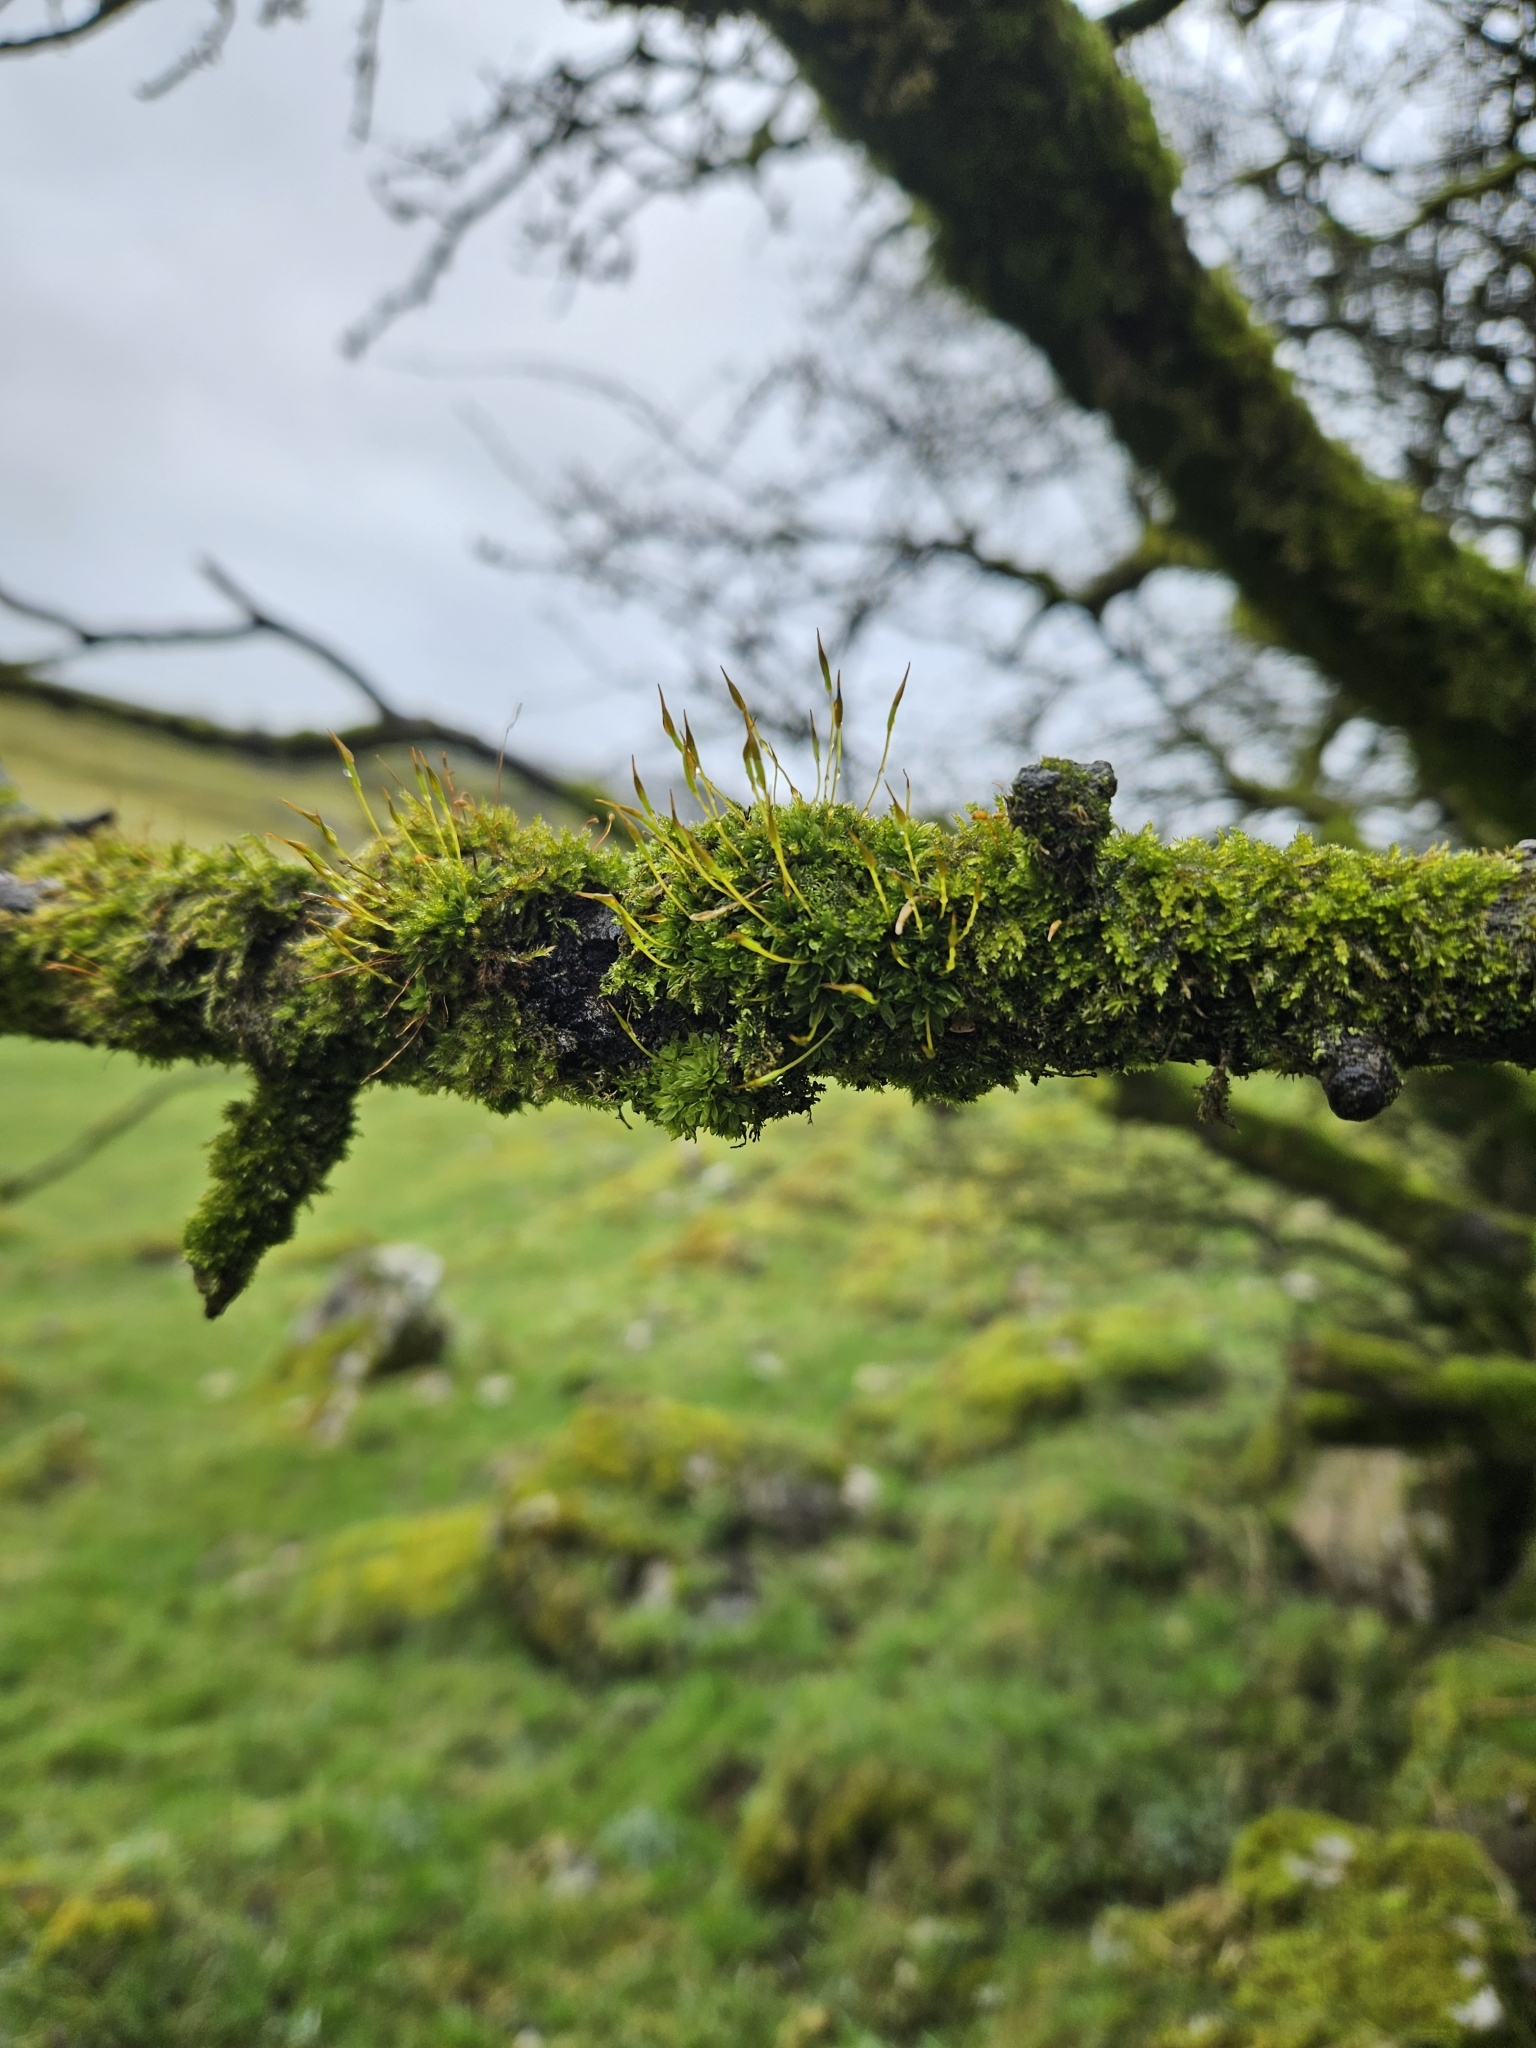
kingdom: Plantae
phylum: Bryophyta
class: Bryopsida
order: Pottiales
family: Pottiaceae
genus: Tortula
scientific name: Tortula subulata
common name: Upright screw-moss
